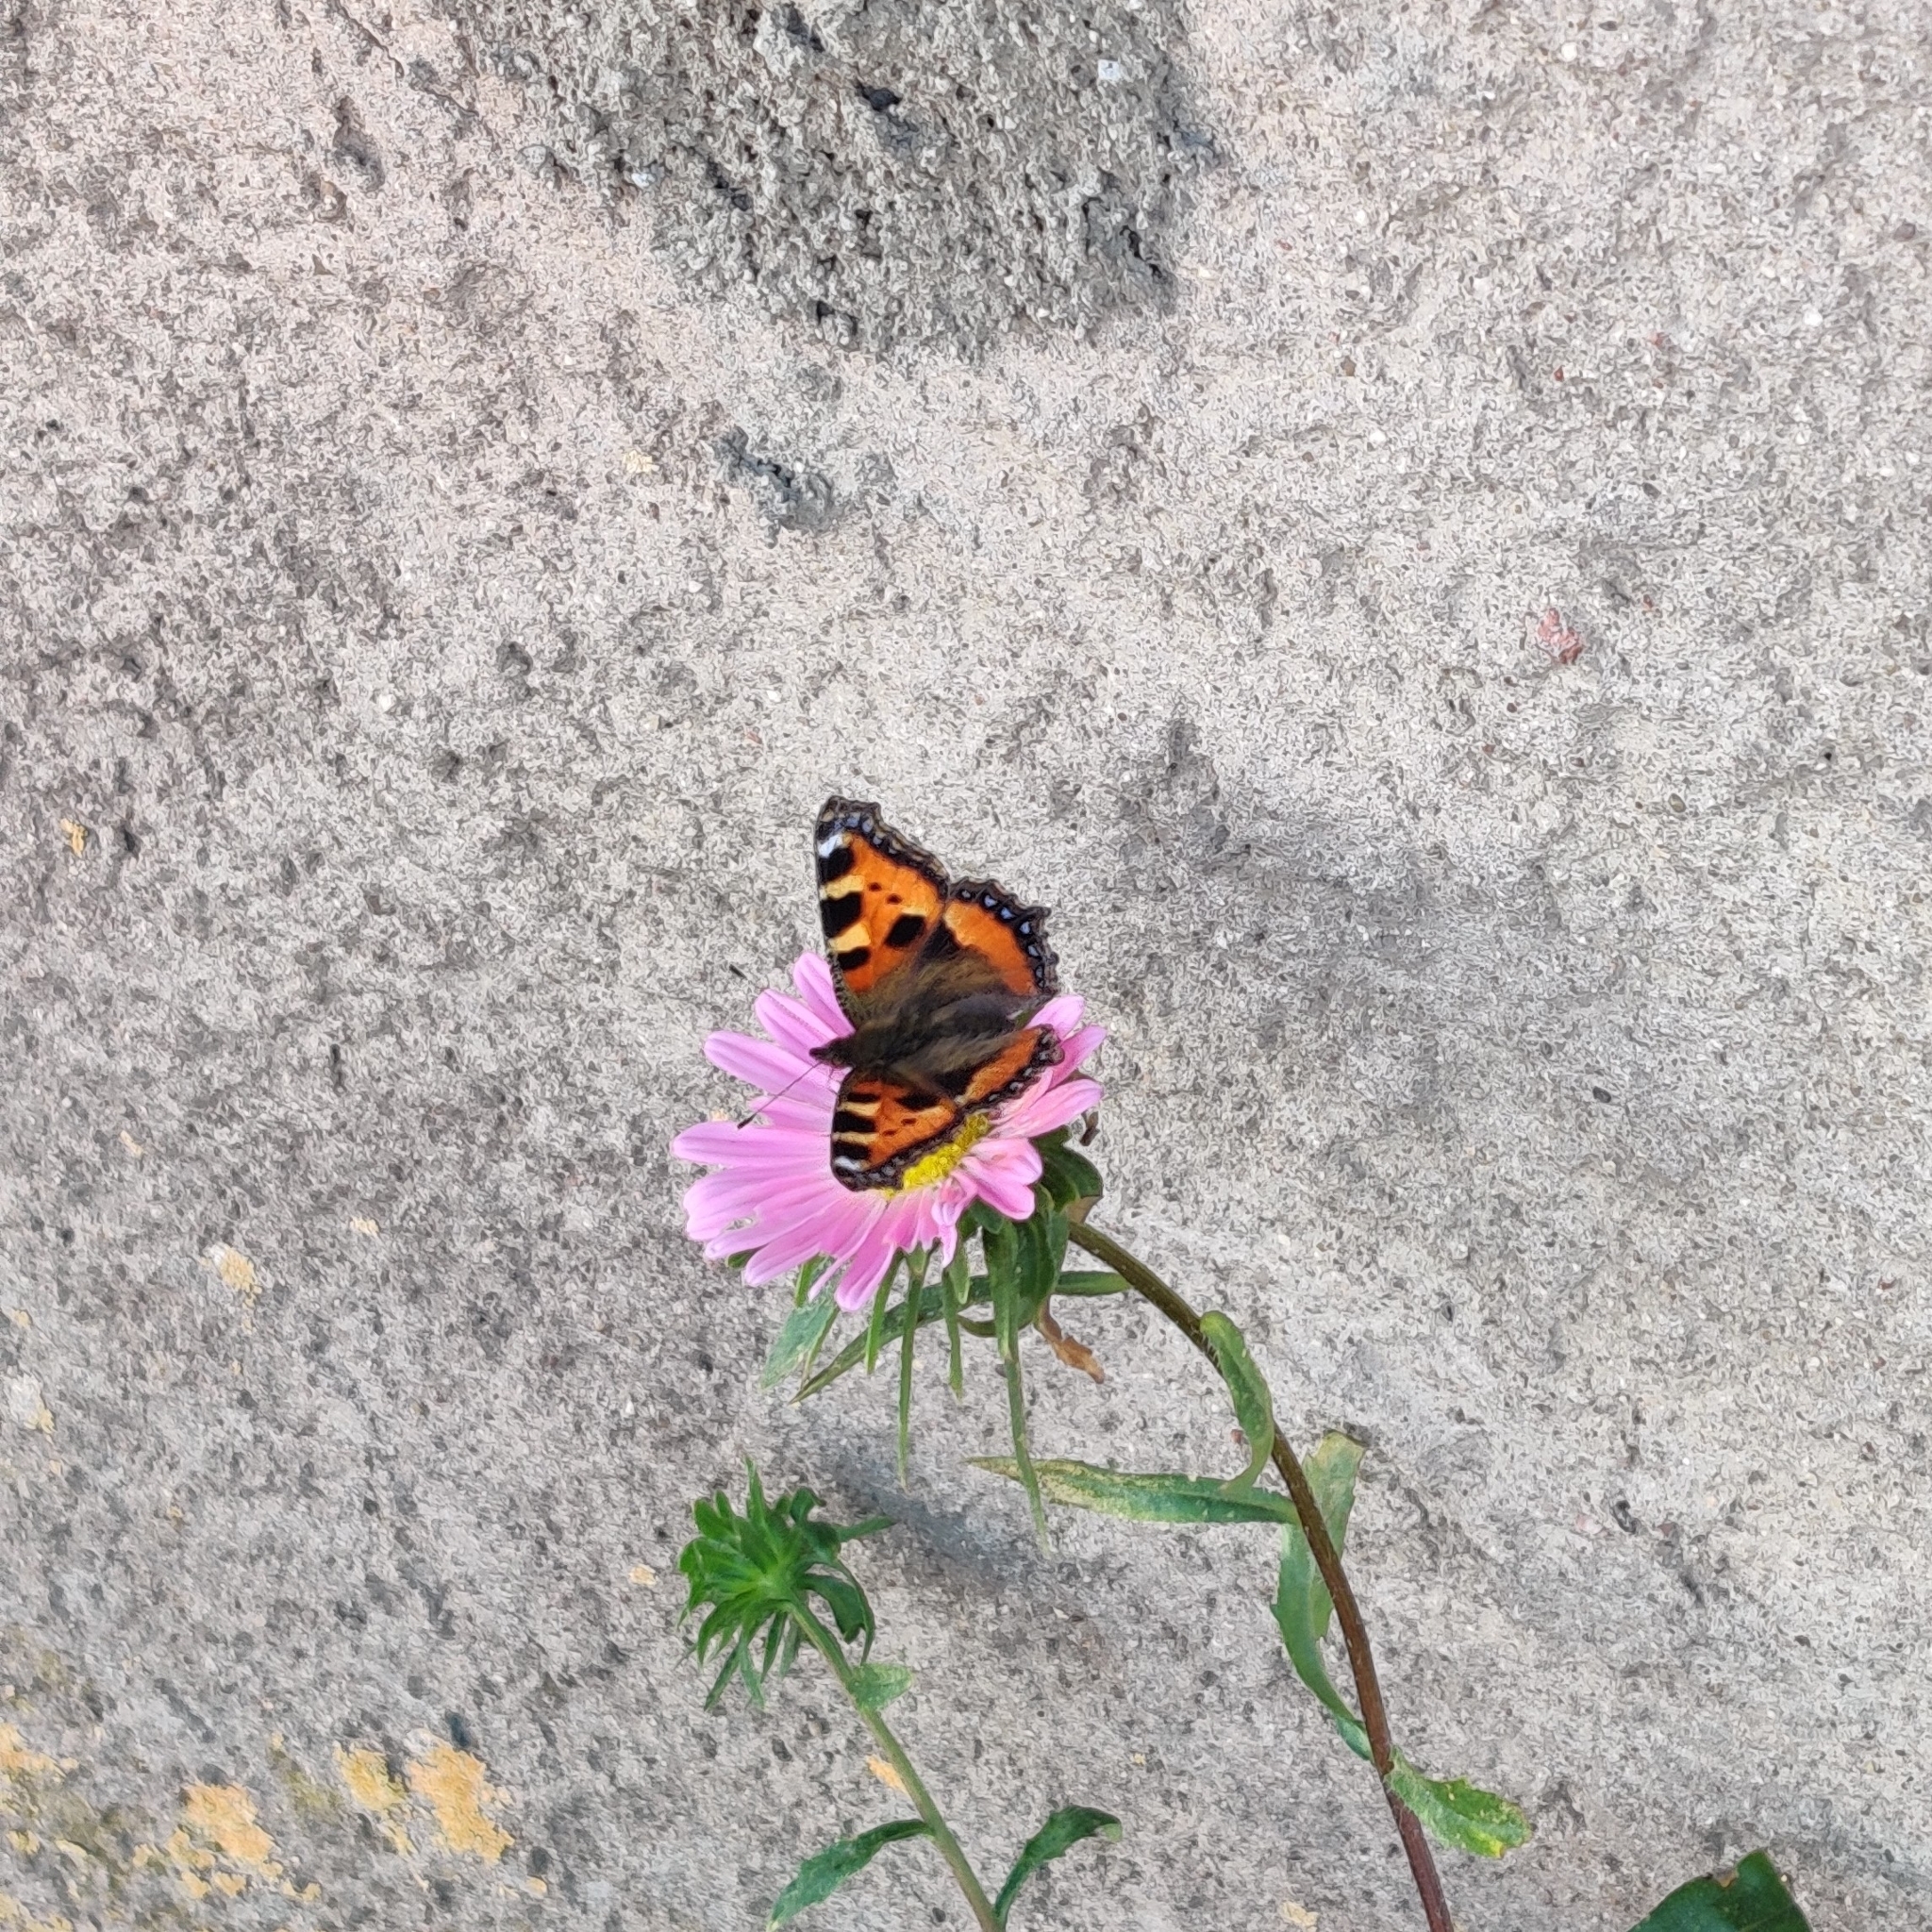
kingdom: Animalia
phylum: Arthropoda
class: Insecta
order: Lepidoptera
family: Nymphalidae
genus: Aglais
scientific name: Aglais urticae
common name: Small tortoiseshell
